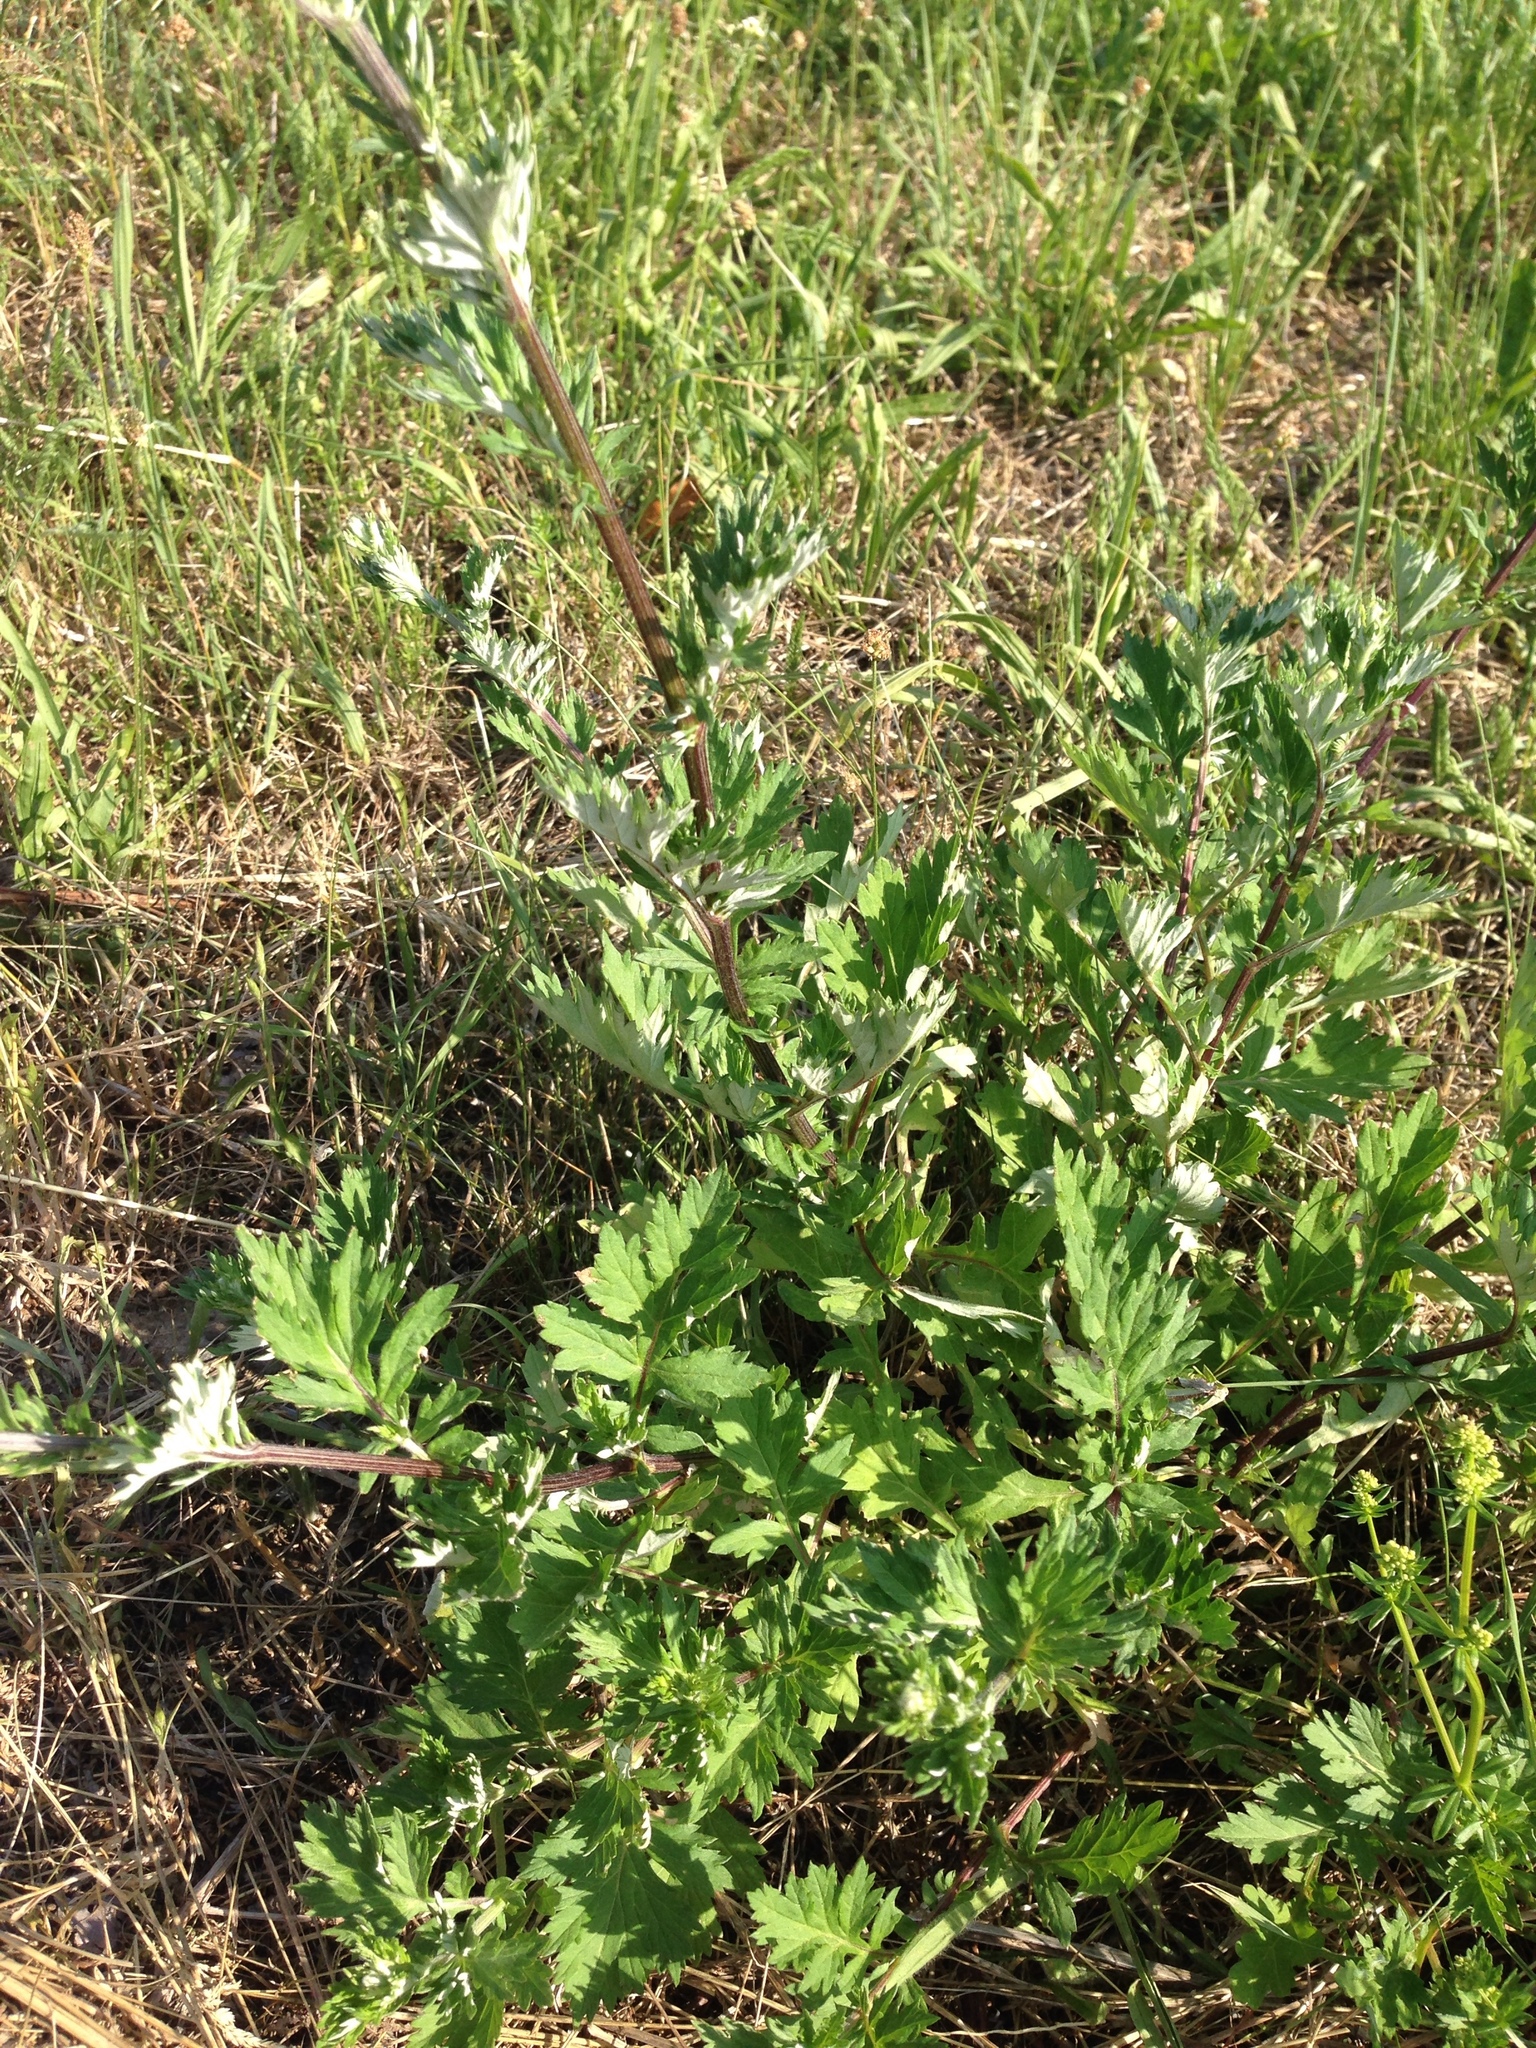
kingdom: Plantae
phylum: Tracheophyta
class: Magnoliopsida
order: Asterales
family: Asteraceae
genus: Artemisia
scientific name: Artemisia vulgaris
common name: Mugwort
